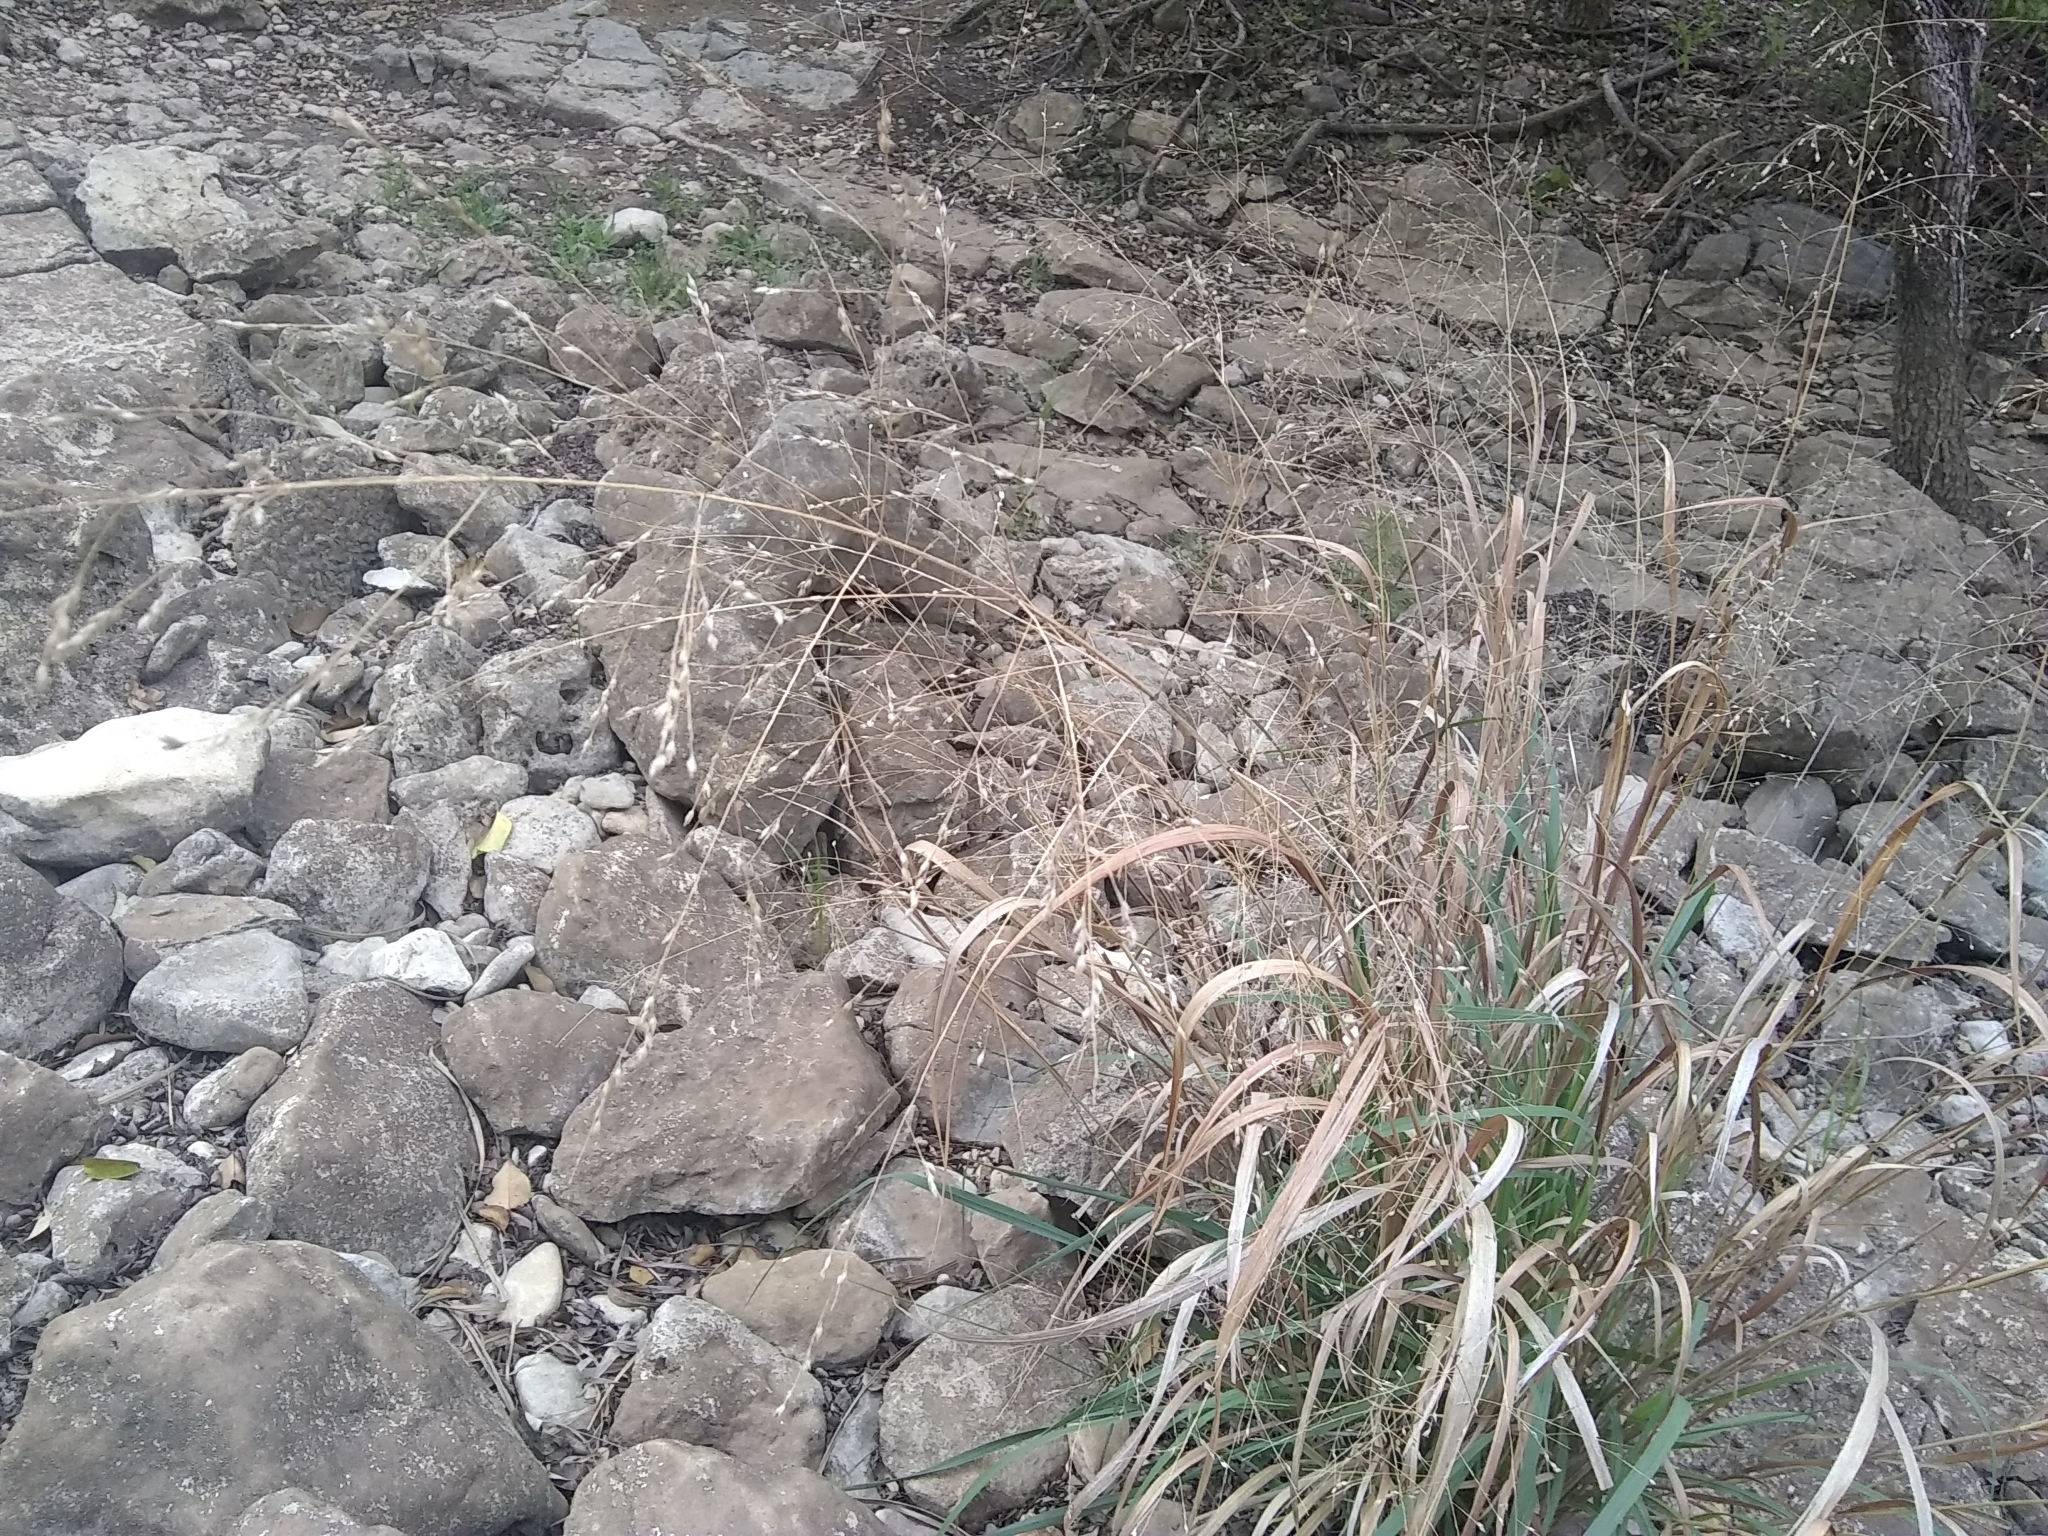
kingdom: Plantae
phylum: Tracheophyta
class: Liliopsida
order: Poales
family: Poaceae
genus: Panicum
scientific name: Panicum virgatum
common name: Switchgrass
